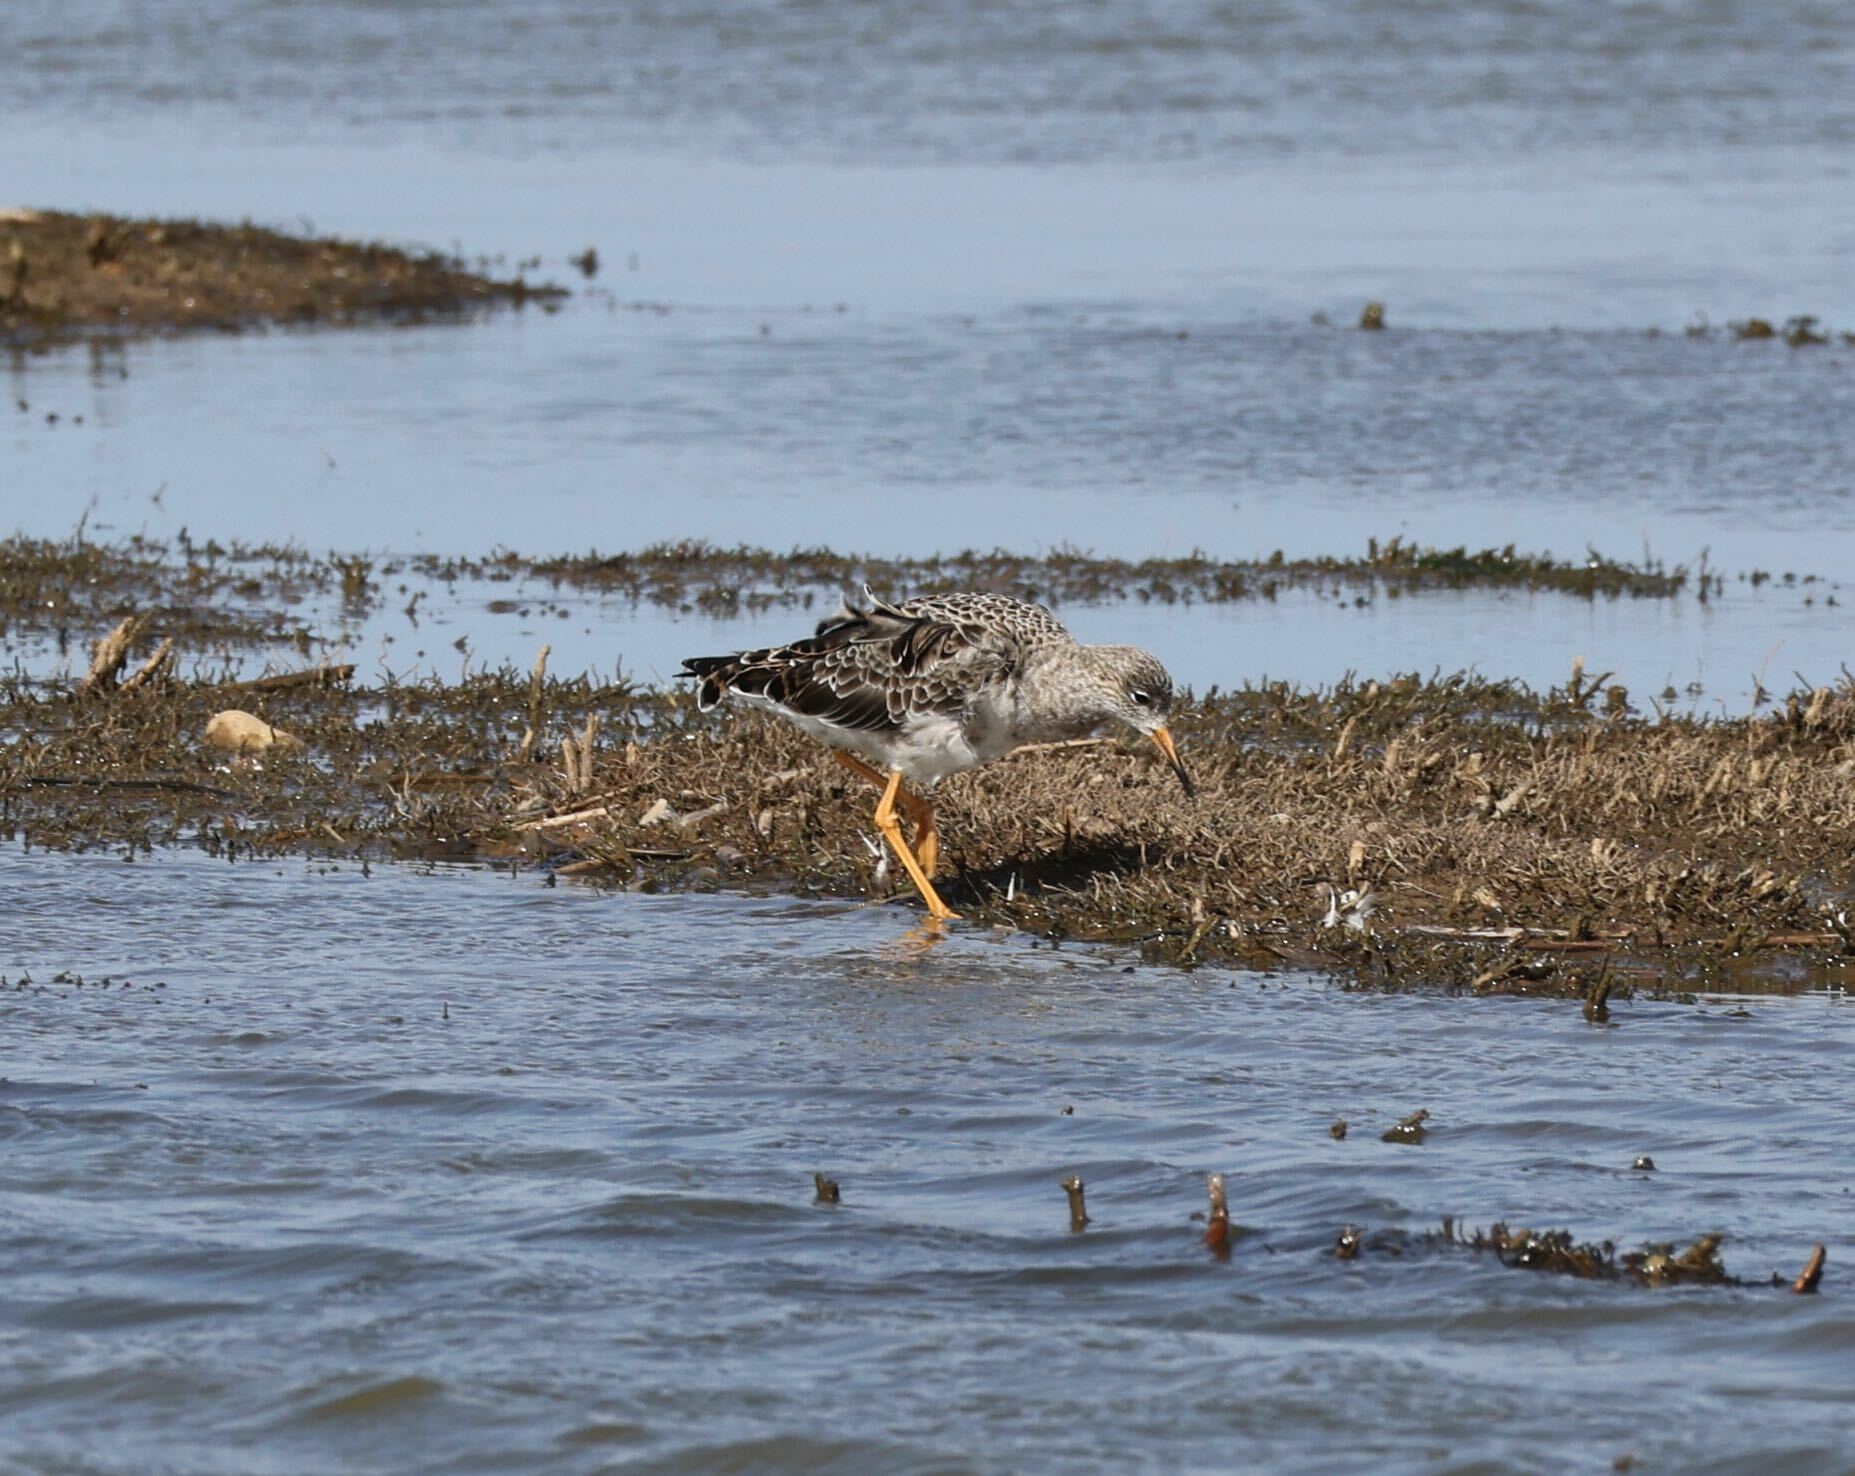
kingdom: Animalia
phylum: Chordata
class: Aves
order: Charadriiformes
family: Scolopacidae
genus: Calidris
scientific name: Calidris pugnax
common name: Ruff
